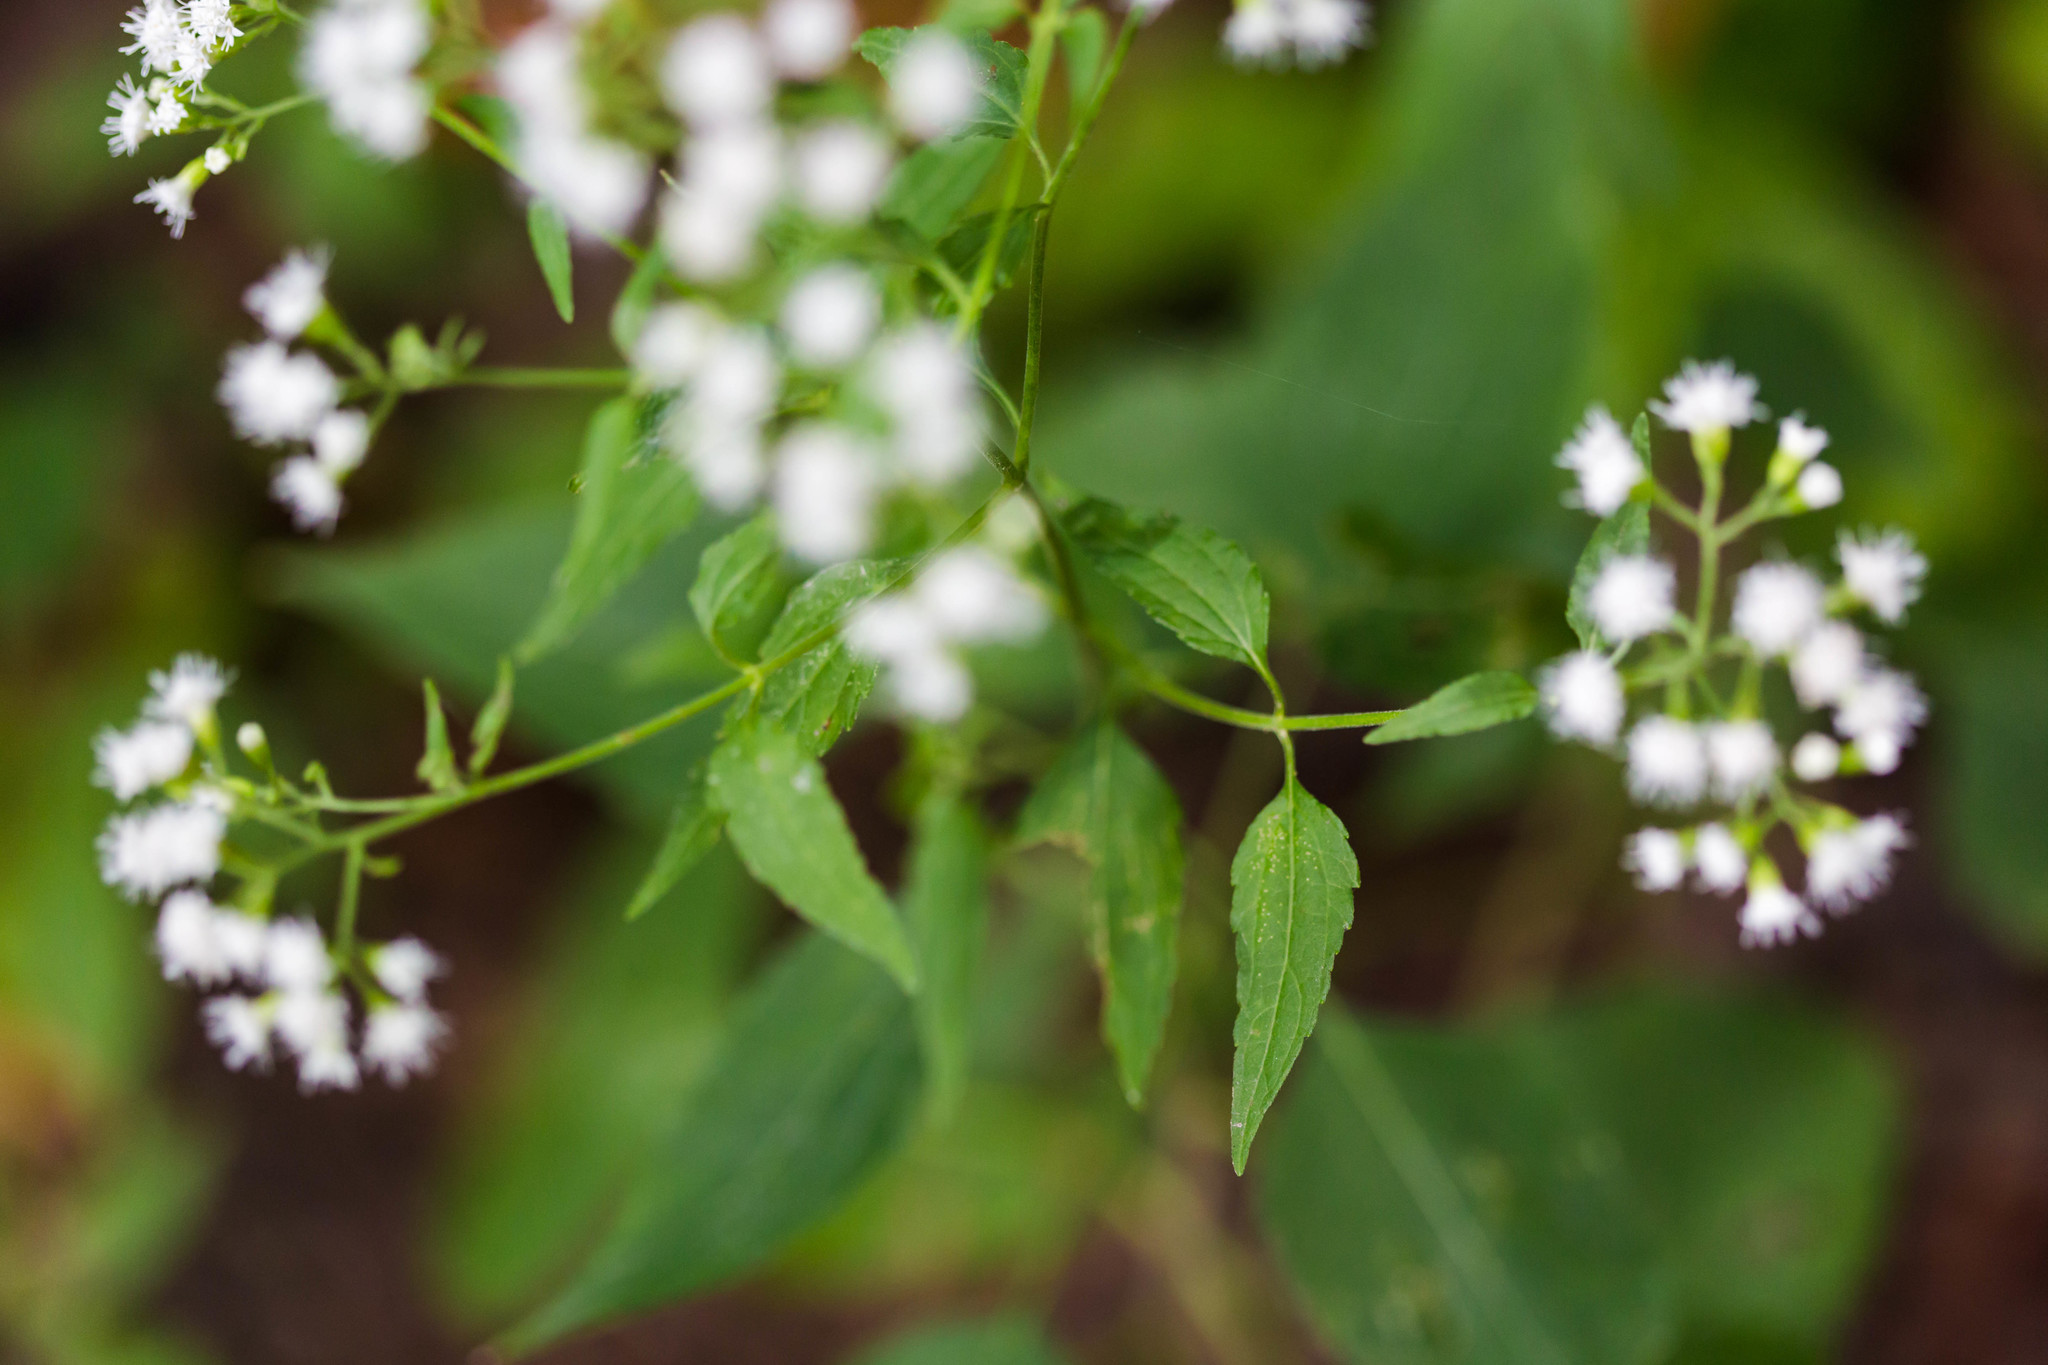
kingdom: Plantae
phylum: Tracheophyta
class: Magnoliopsida
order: Asterales
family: Asteraceae
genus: Ageratina
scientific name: Ageratina altissima
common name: White snakeroot
